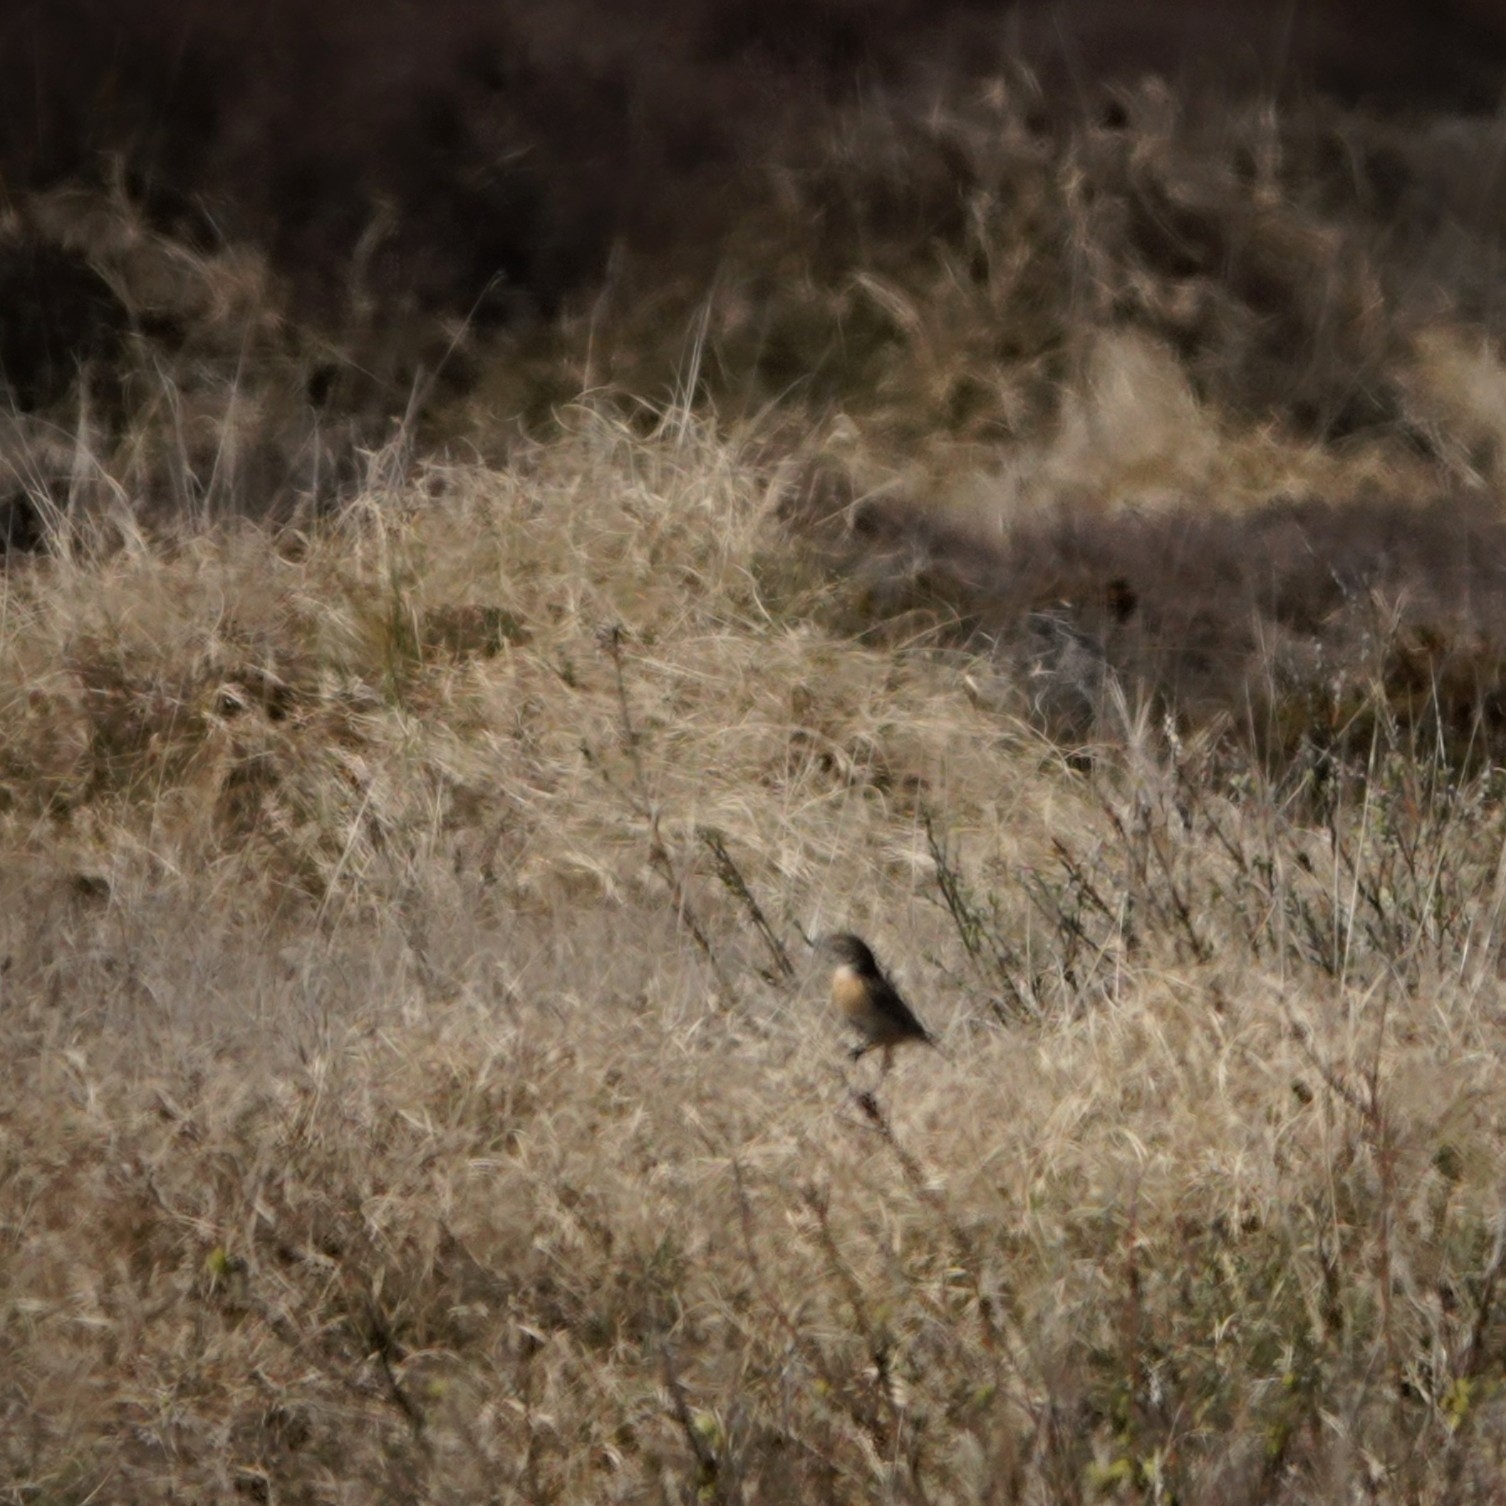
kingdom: Animalia
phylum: Chordata
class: Aves
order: Passeriformes
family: Muscicapidae
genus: Saxicola
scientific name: Saxicola rubicola
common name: European stonechat
